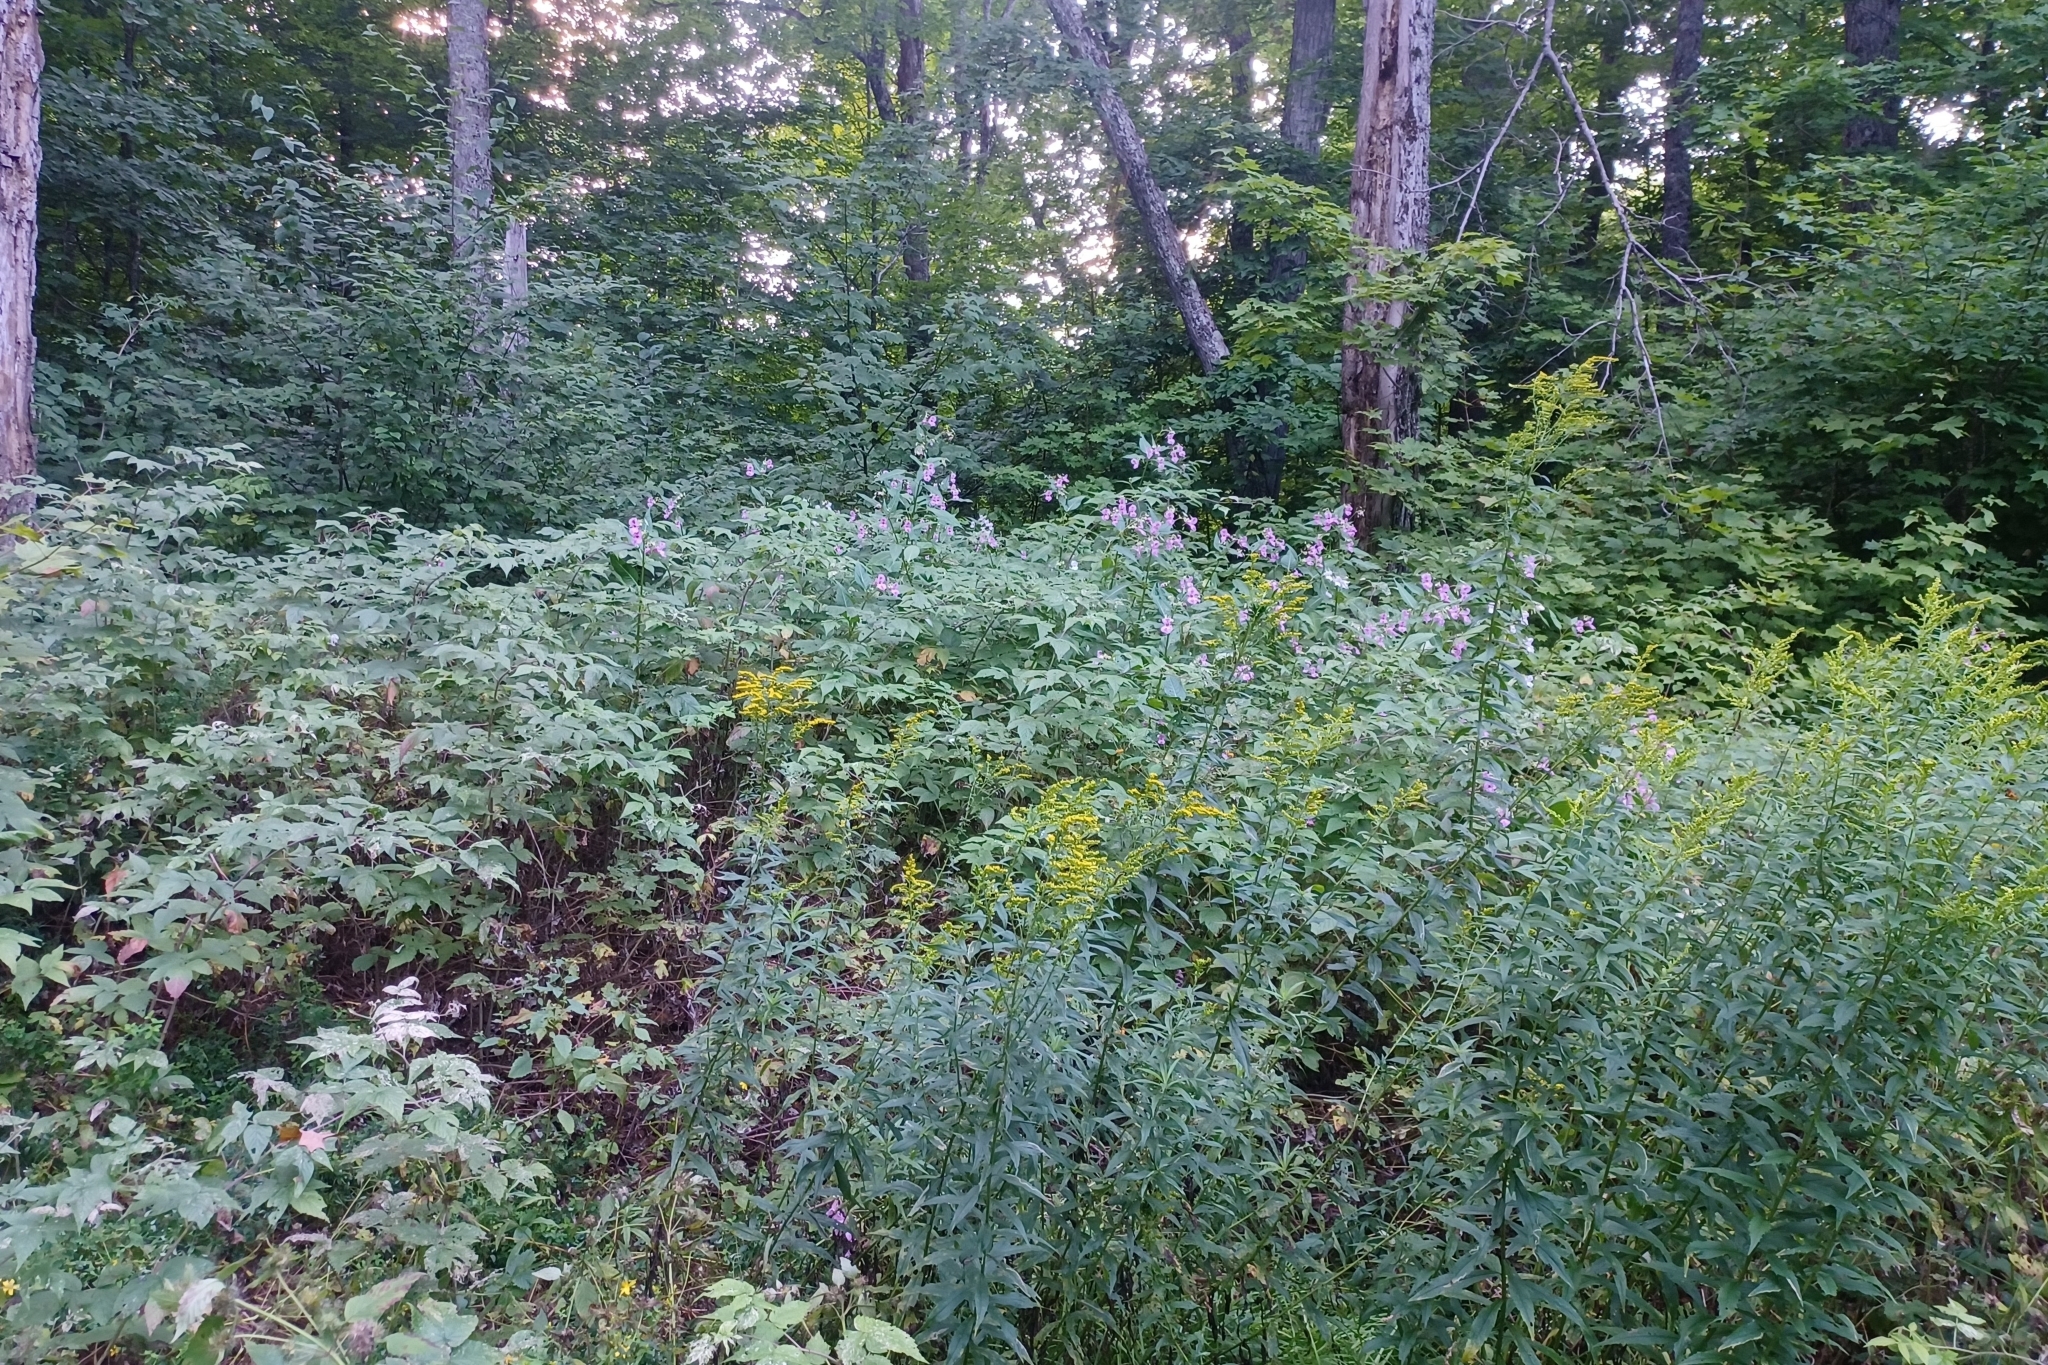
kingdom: Plantae
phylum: Tracheophyta
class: Magnoliopsida
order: Ericales
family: Balsaminaceae
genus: Impatiens
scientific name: Impatiens glandulifera
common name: Himalayan balsam
